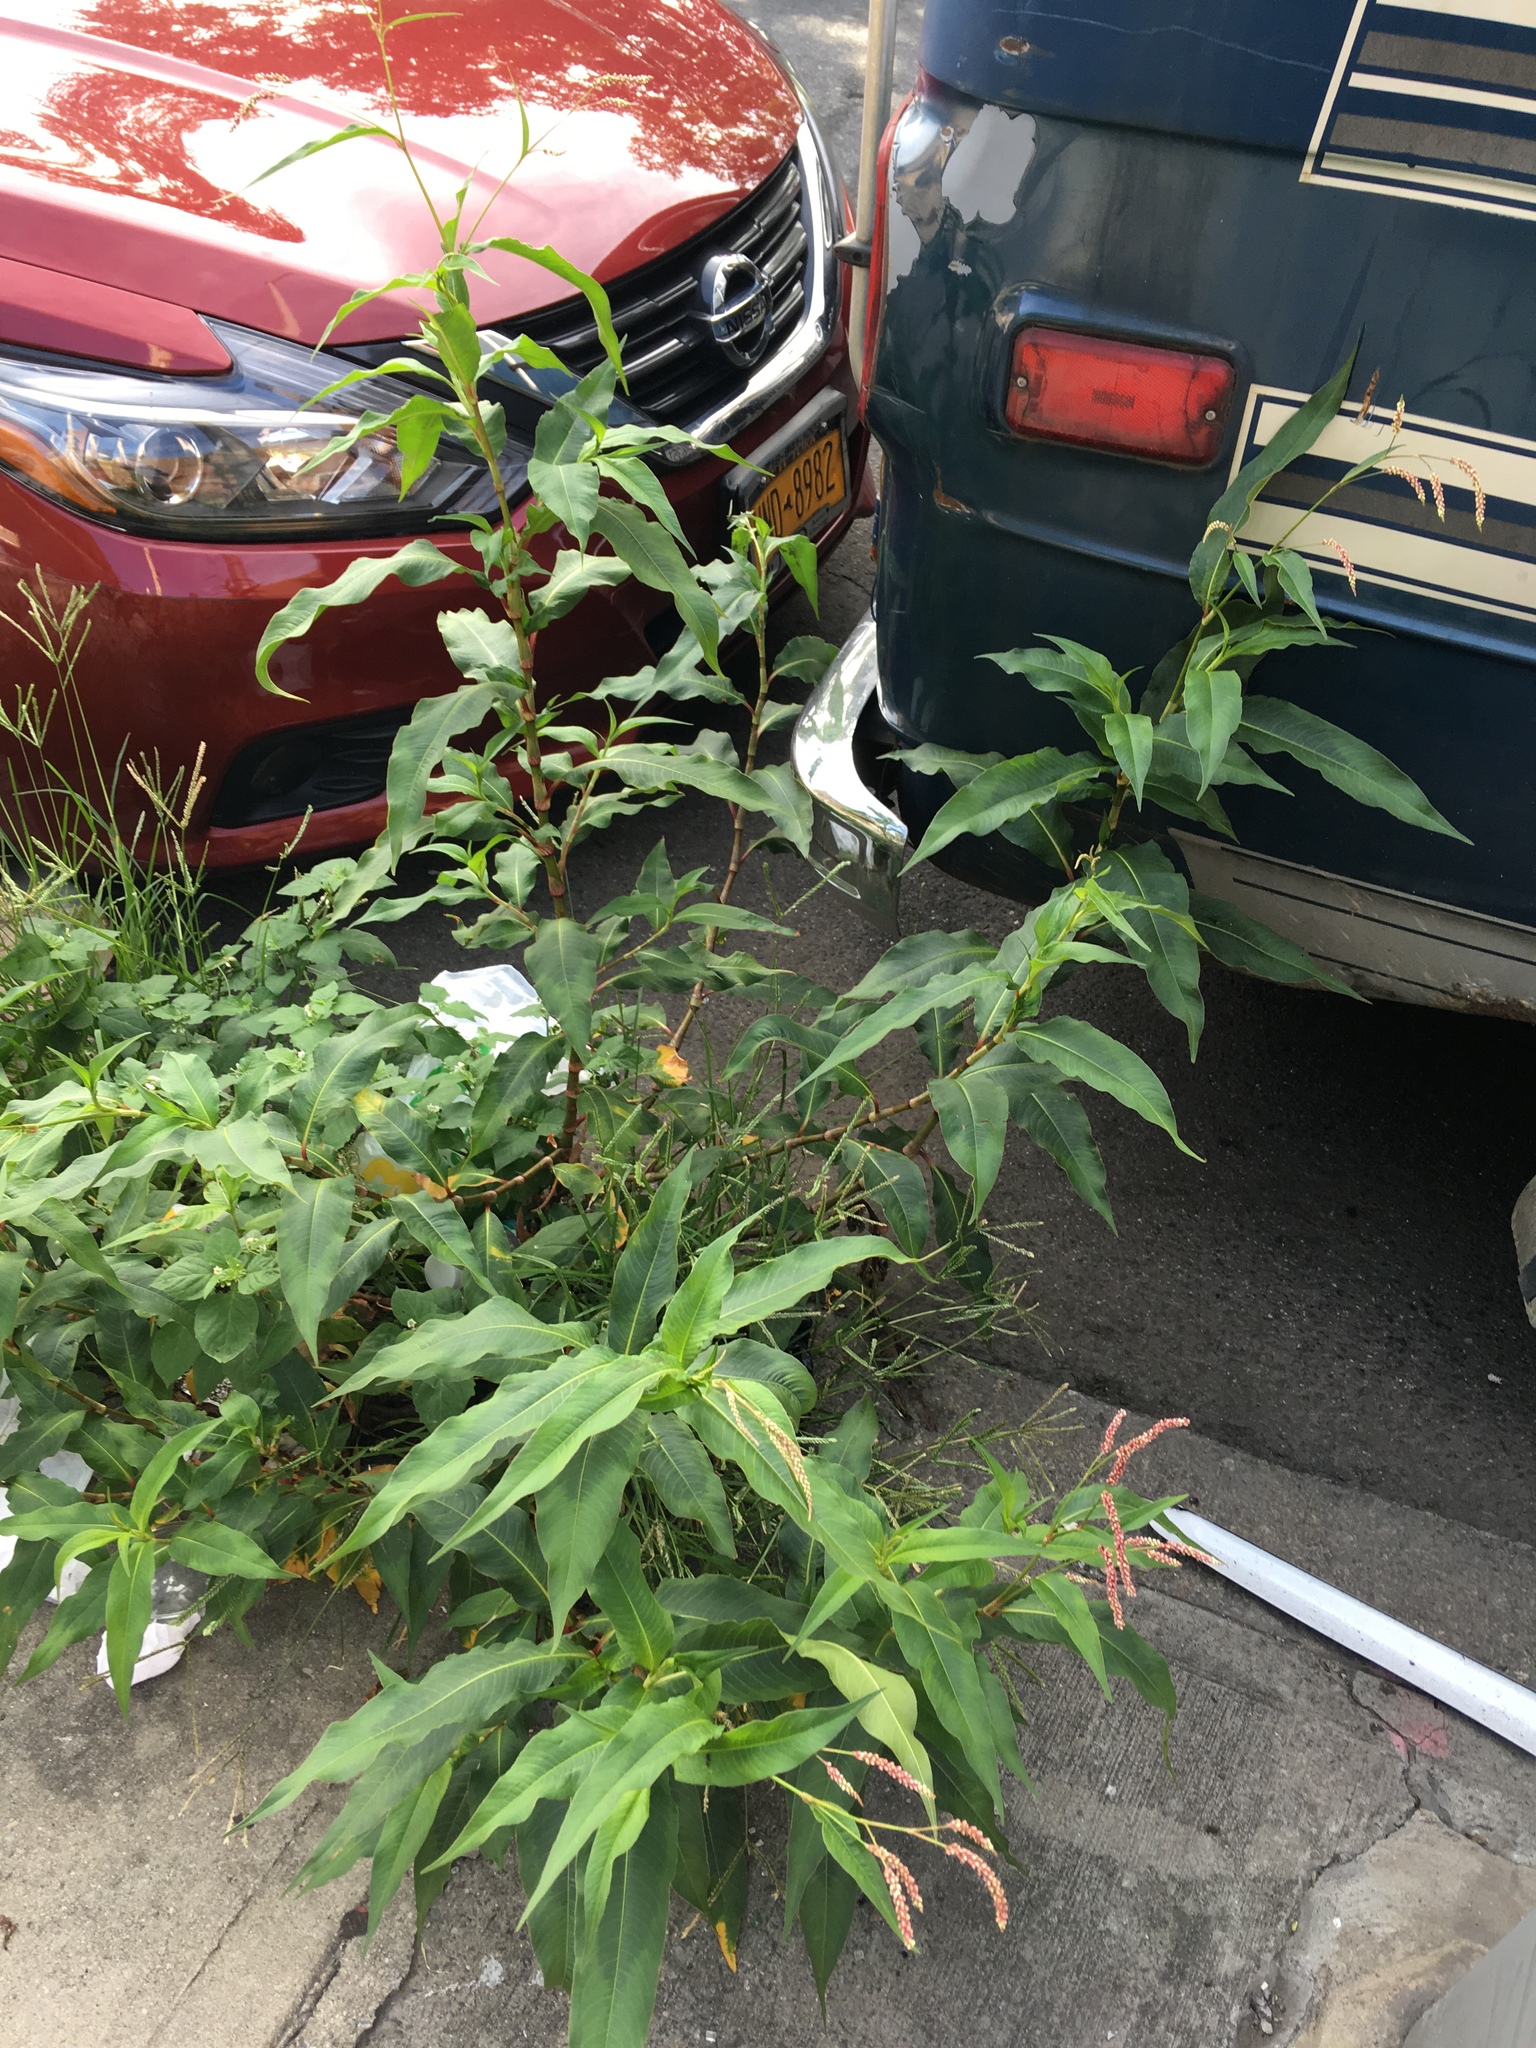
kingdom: Plantae
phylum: Tracheophyta
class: Magnoliopsida
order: Caryophyllales
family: Polygonaceae
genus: Persicaria
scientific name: Persicaria extremiorientalis
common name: Far-eastern smartweed
